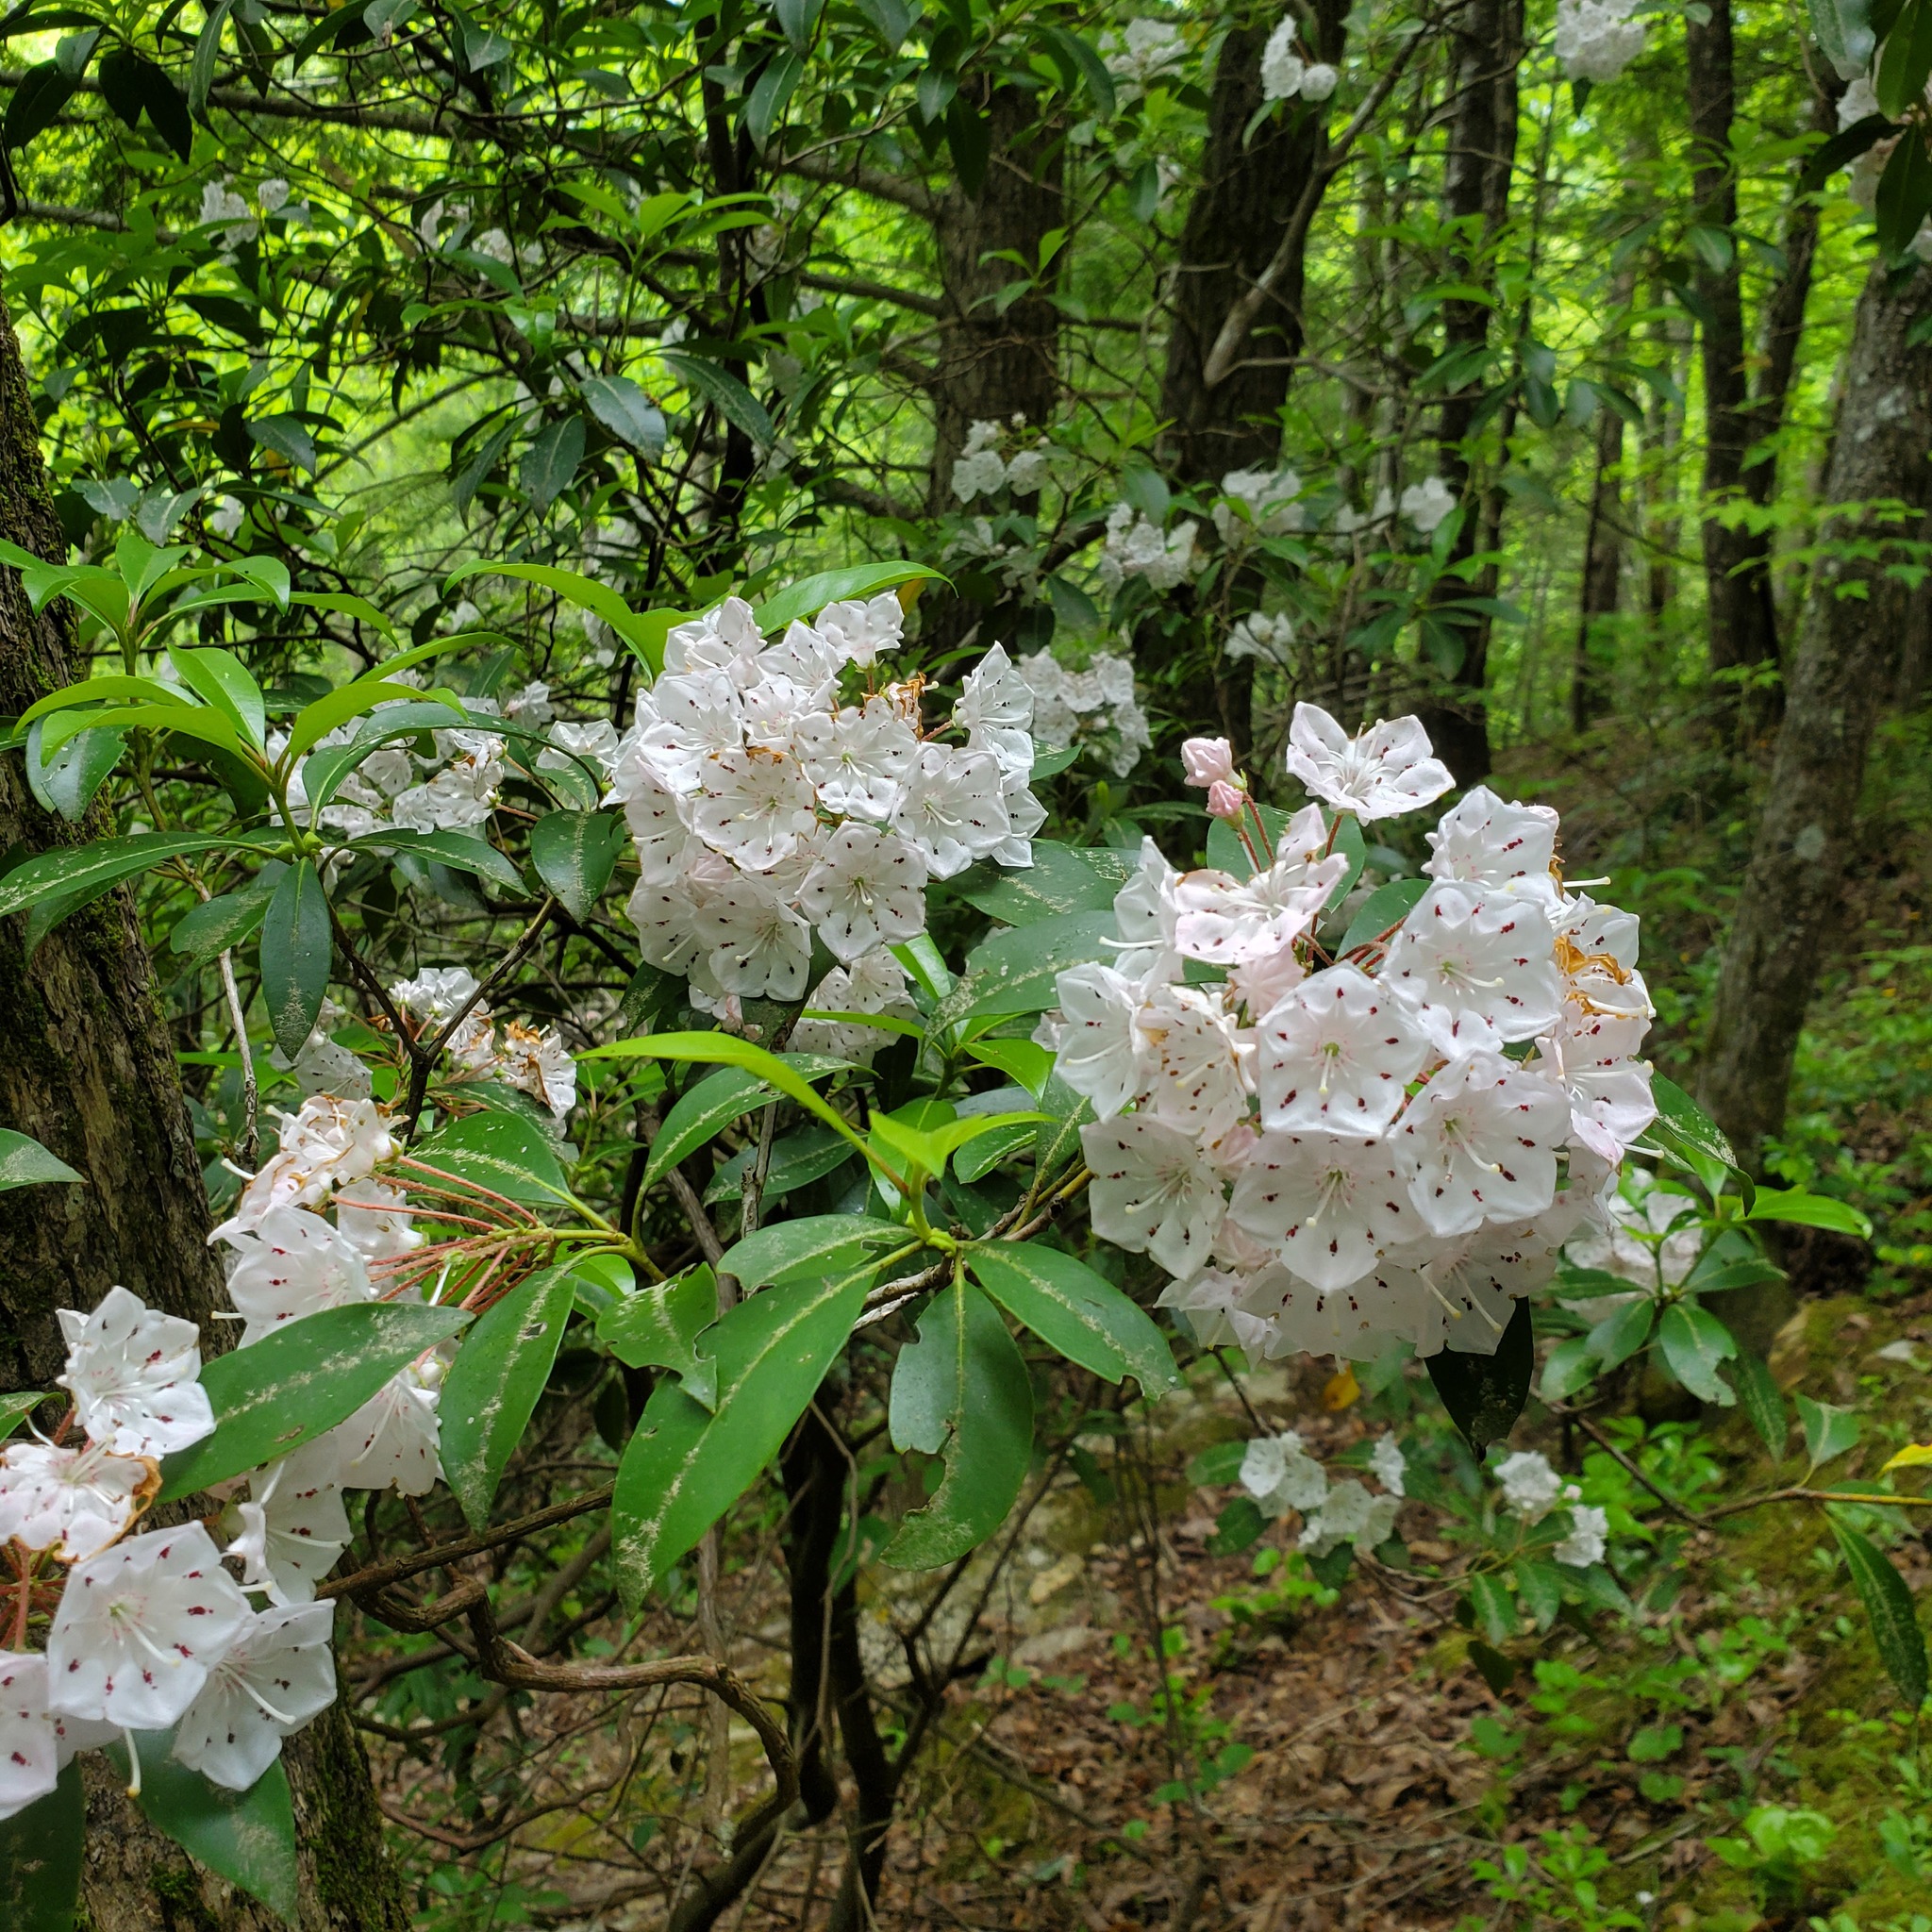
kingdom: Plantae
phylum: Tracheophyta
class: Magnoliopsida
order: Ericales
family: Ericaceae
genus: Kalmia
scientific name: Kalmia latifolia
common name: Mountain-laurel
